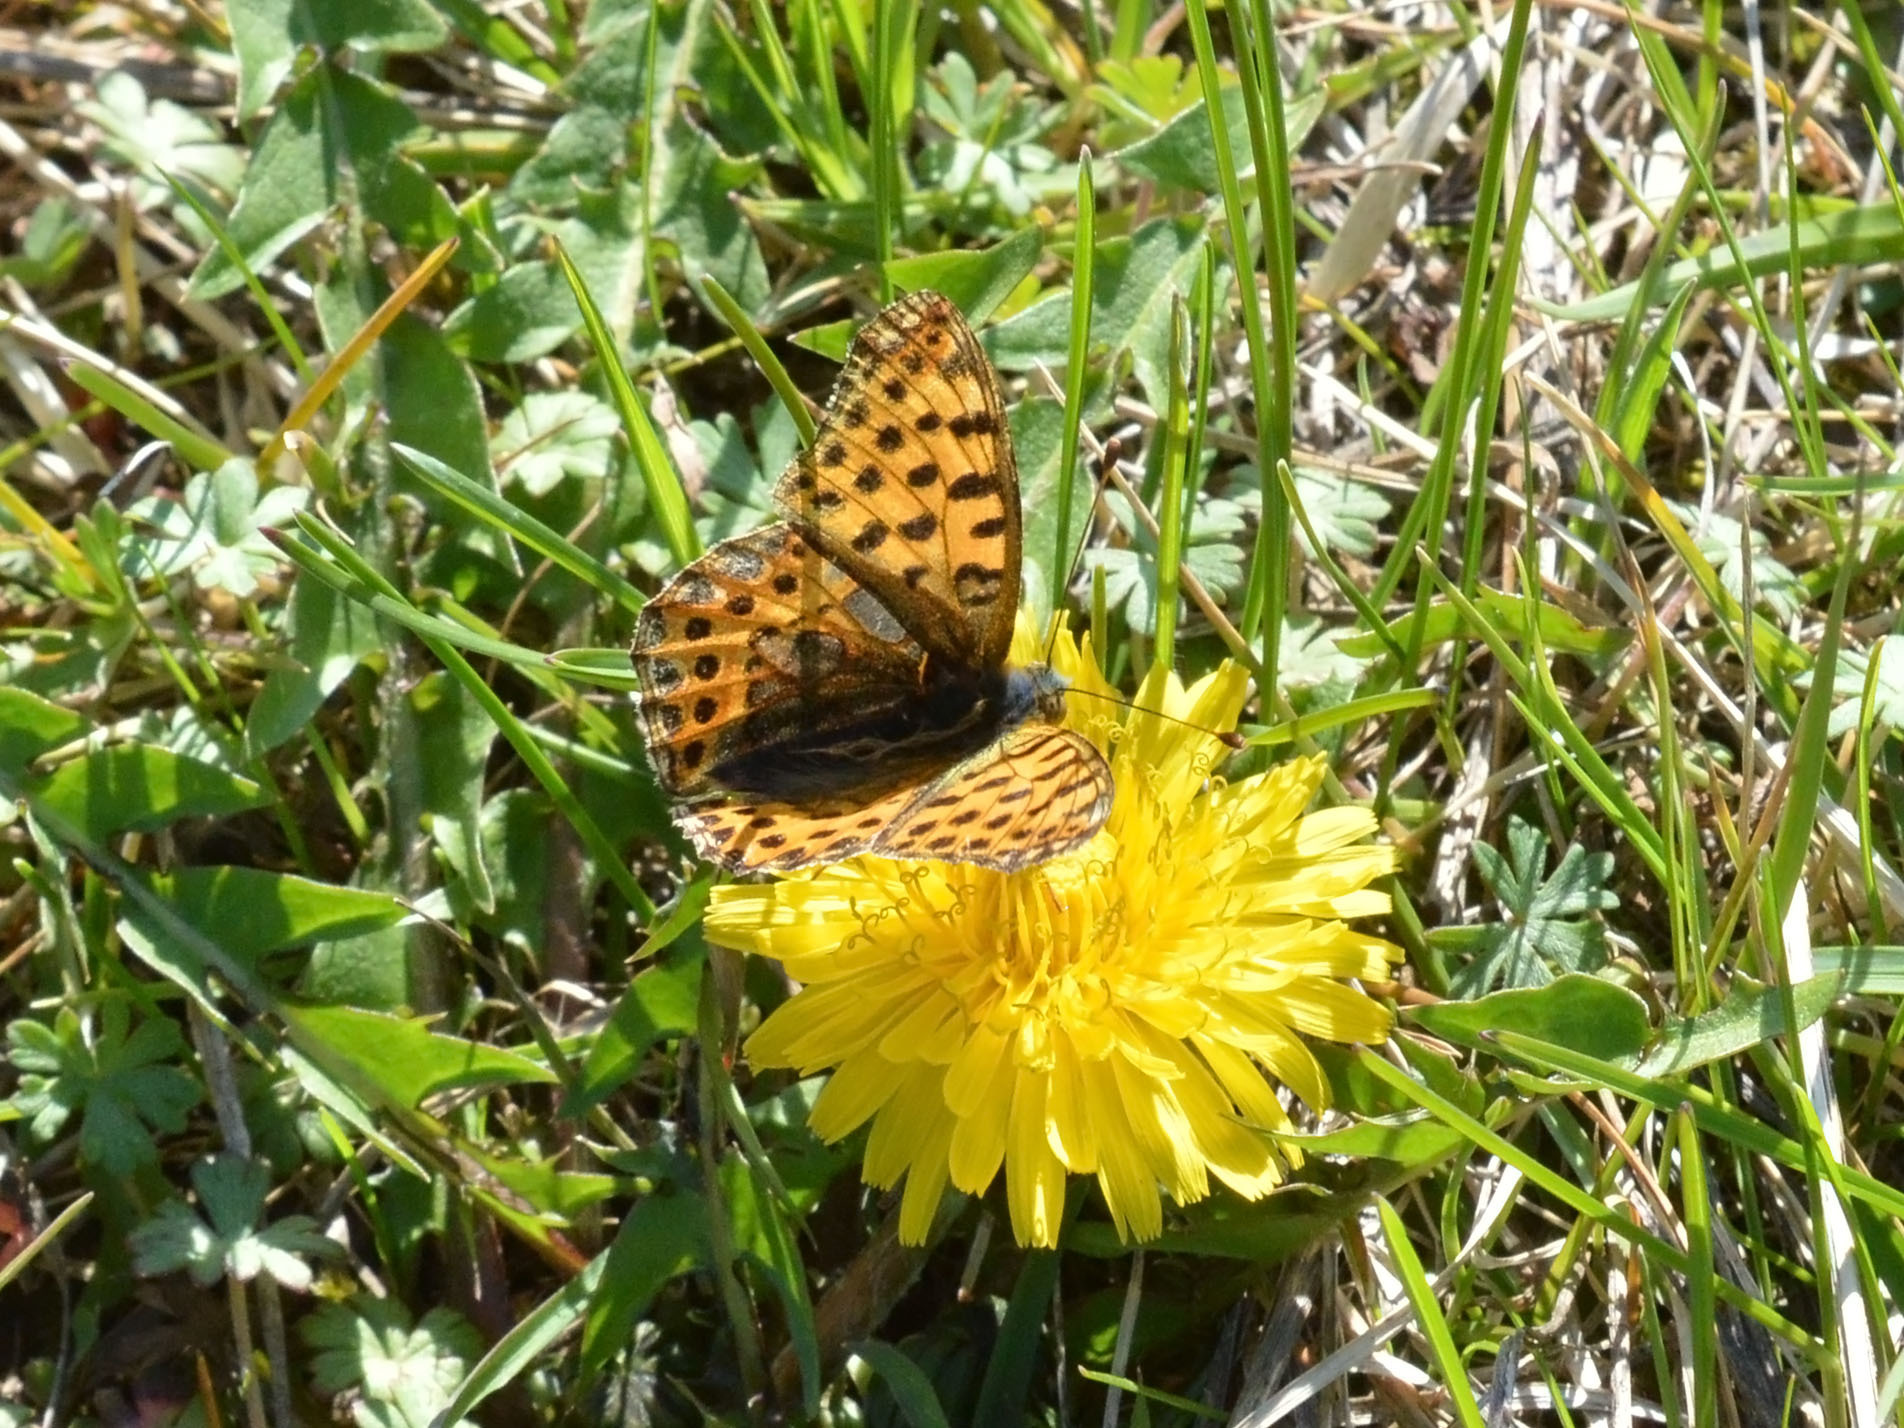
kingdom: Animalia
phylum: Arthropoda
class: Insecta
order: Lepidoptera
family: Nymphalidae
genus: Issoria
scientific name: Issoria lathonia
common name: Queen of spain fritillary
